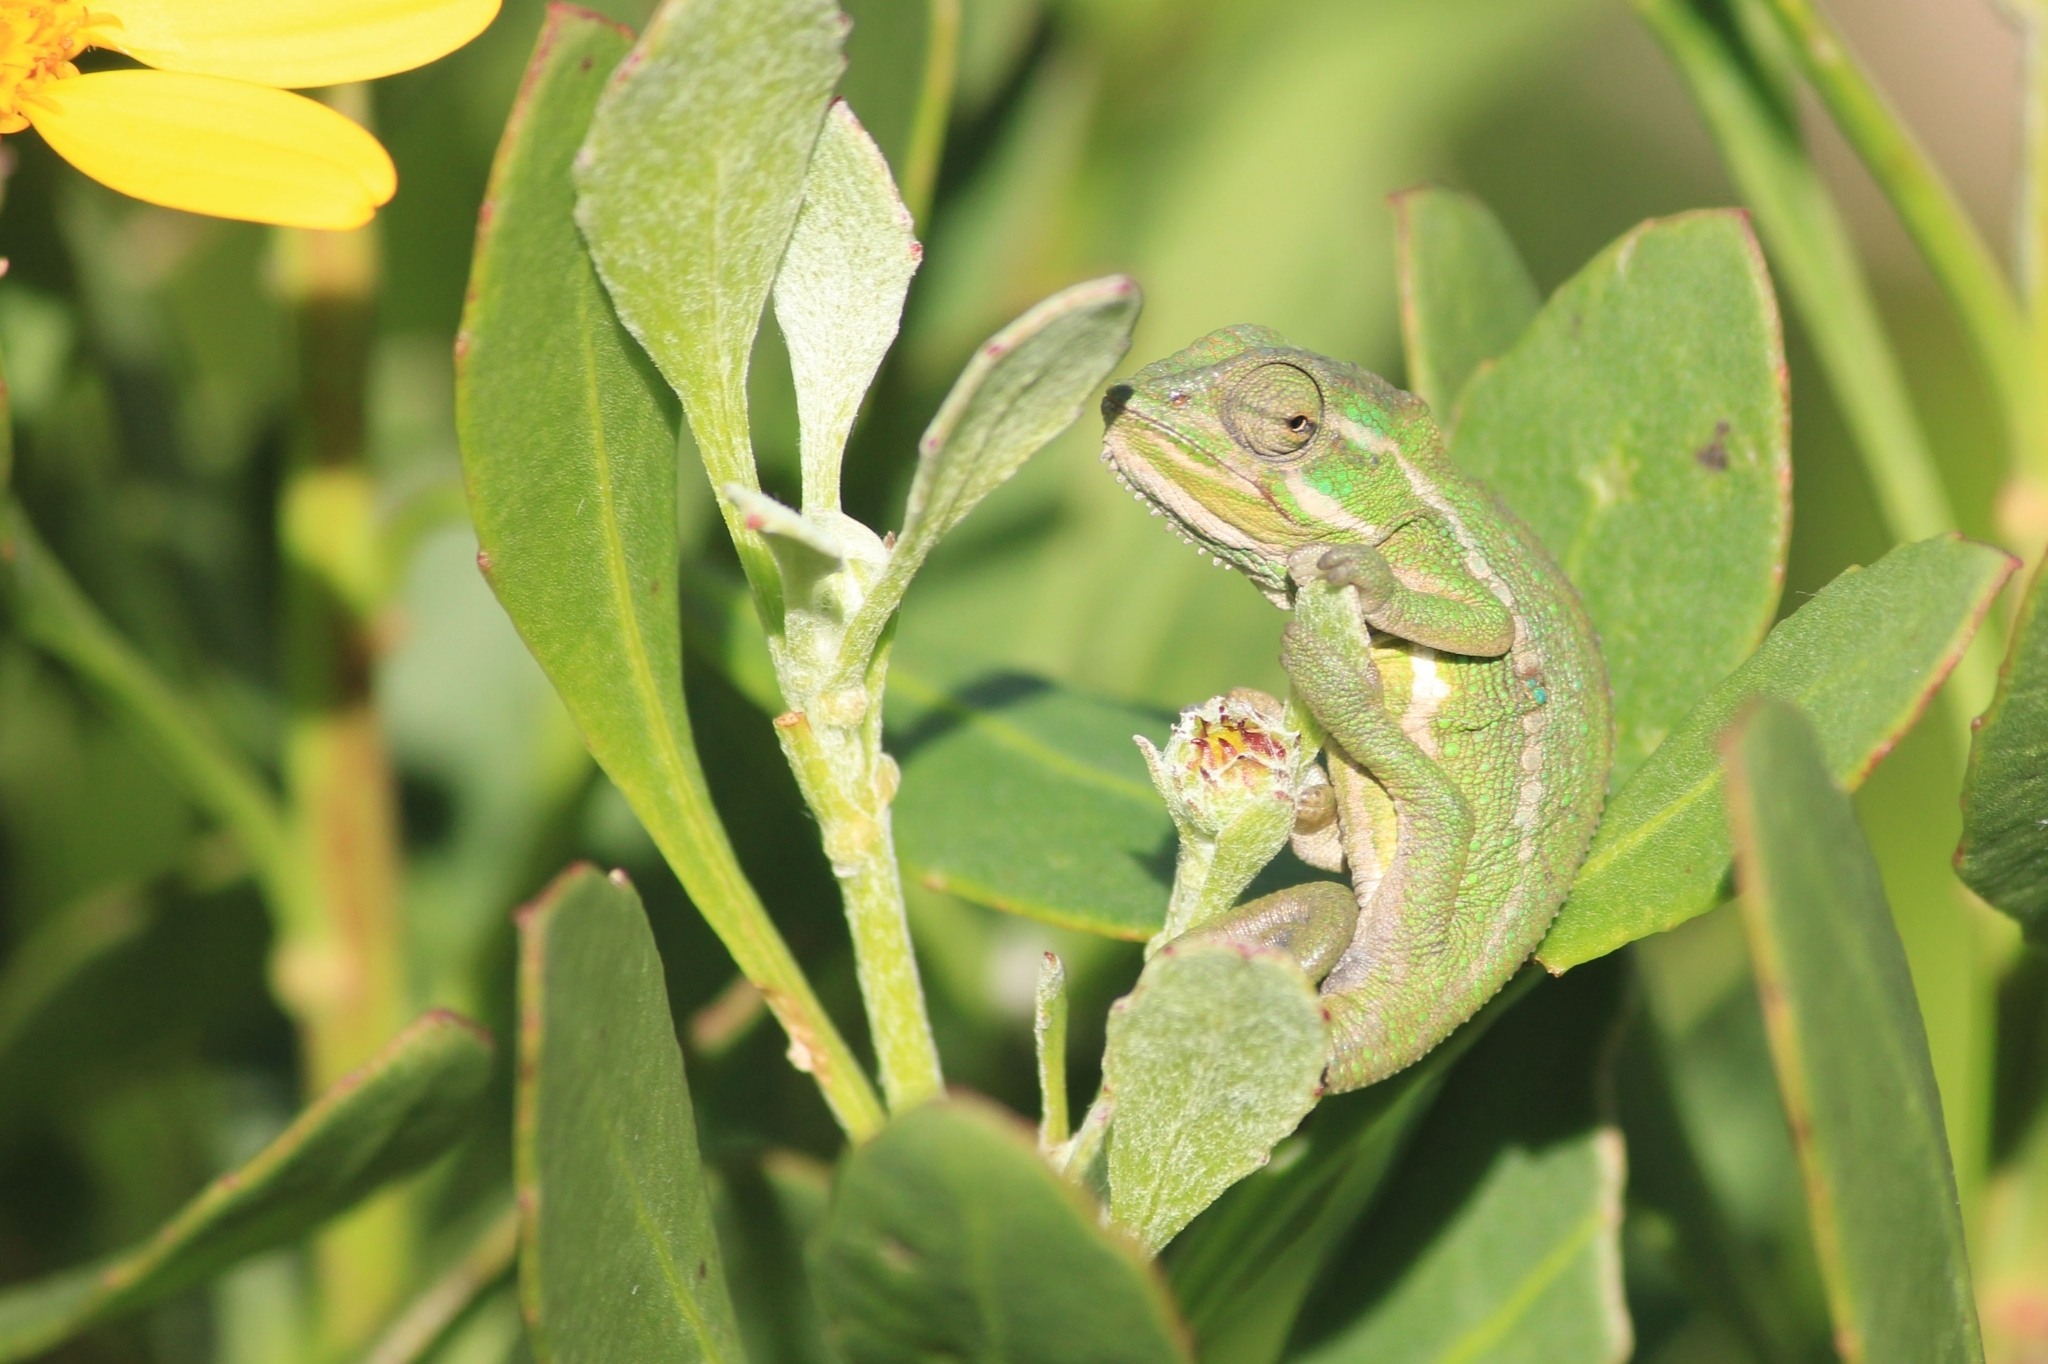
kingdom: Animalia
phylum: Chordata
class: Squamata
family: Chamaeleonidae
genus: Bradypodion
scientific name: Bradypodion pumilum
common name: Cape dwarf chameleon
